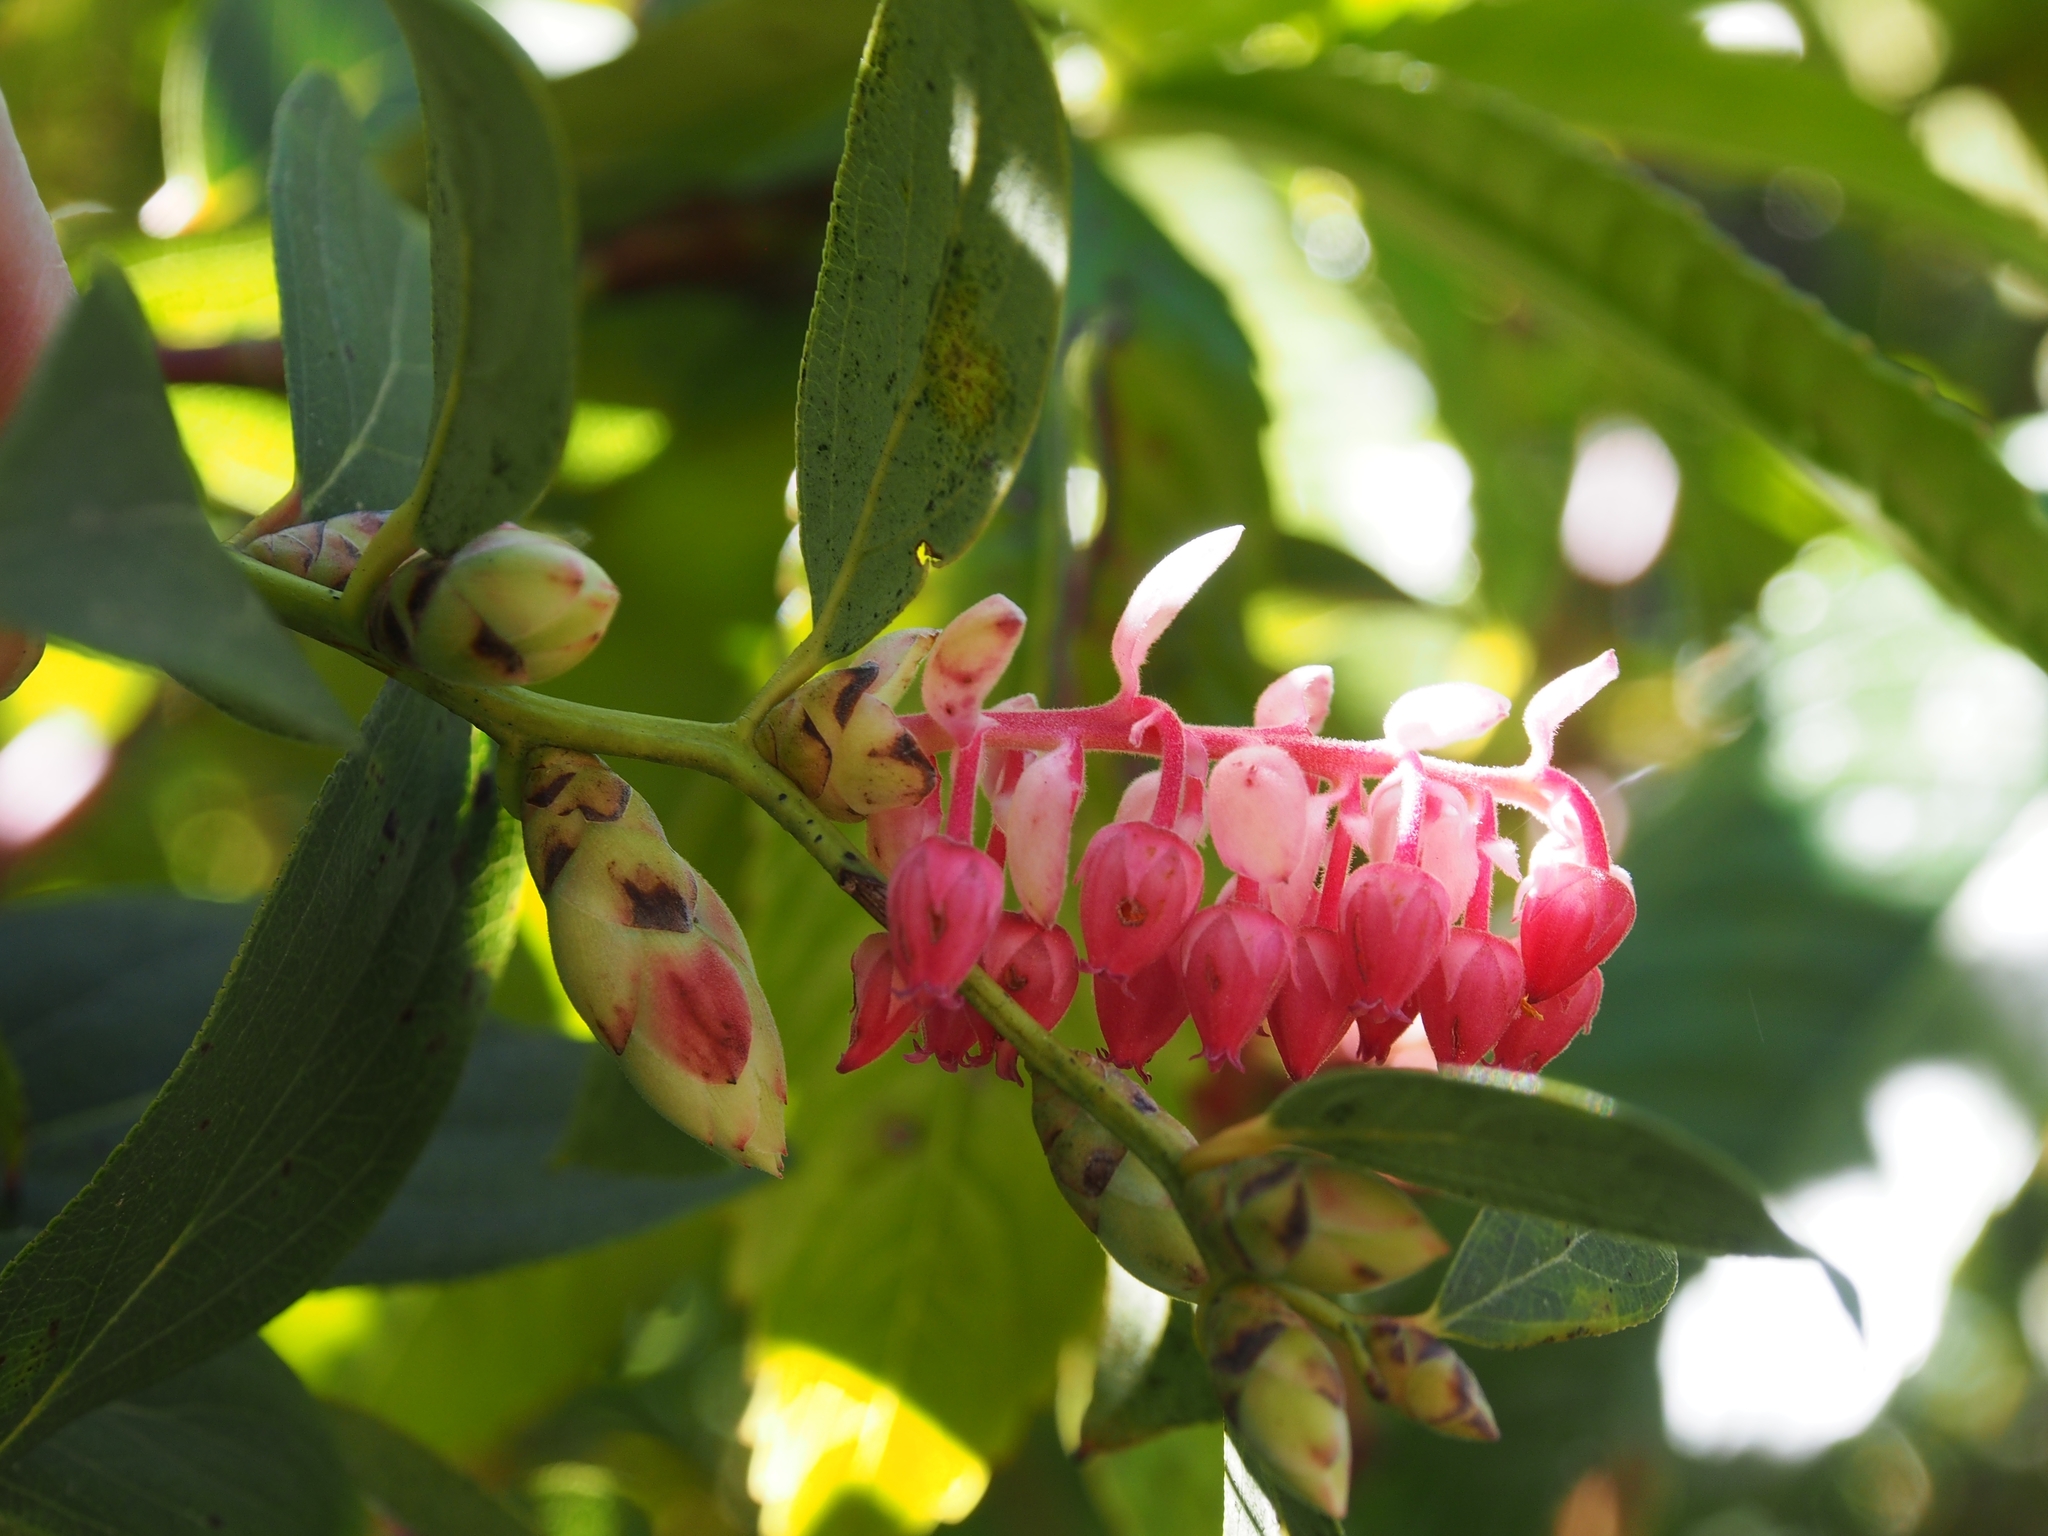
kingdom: Plantae
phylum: Tracheophyta
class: Magnoliopsida
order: Ericales
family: Ericaceae
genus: Gaultheria
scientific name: Gaultheria erecta
